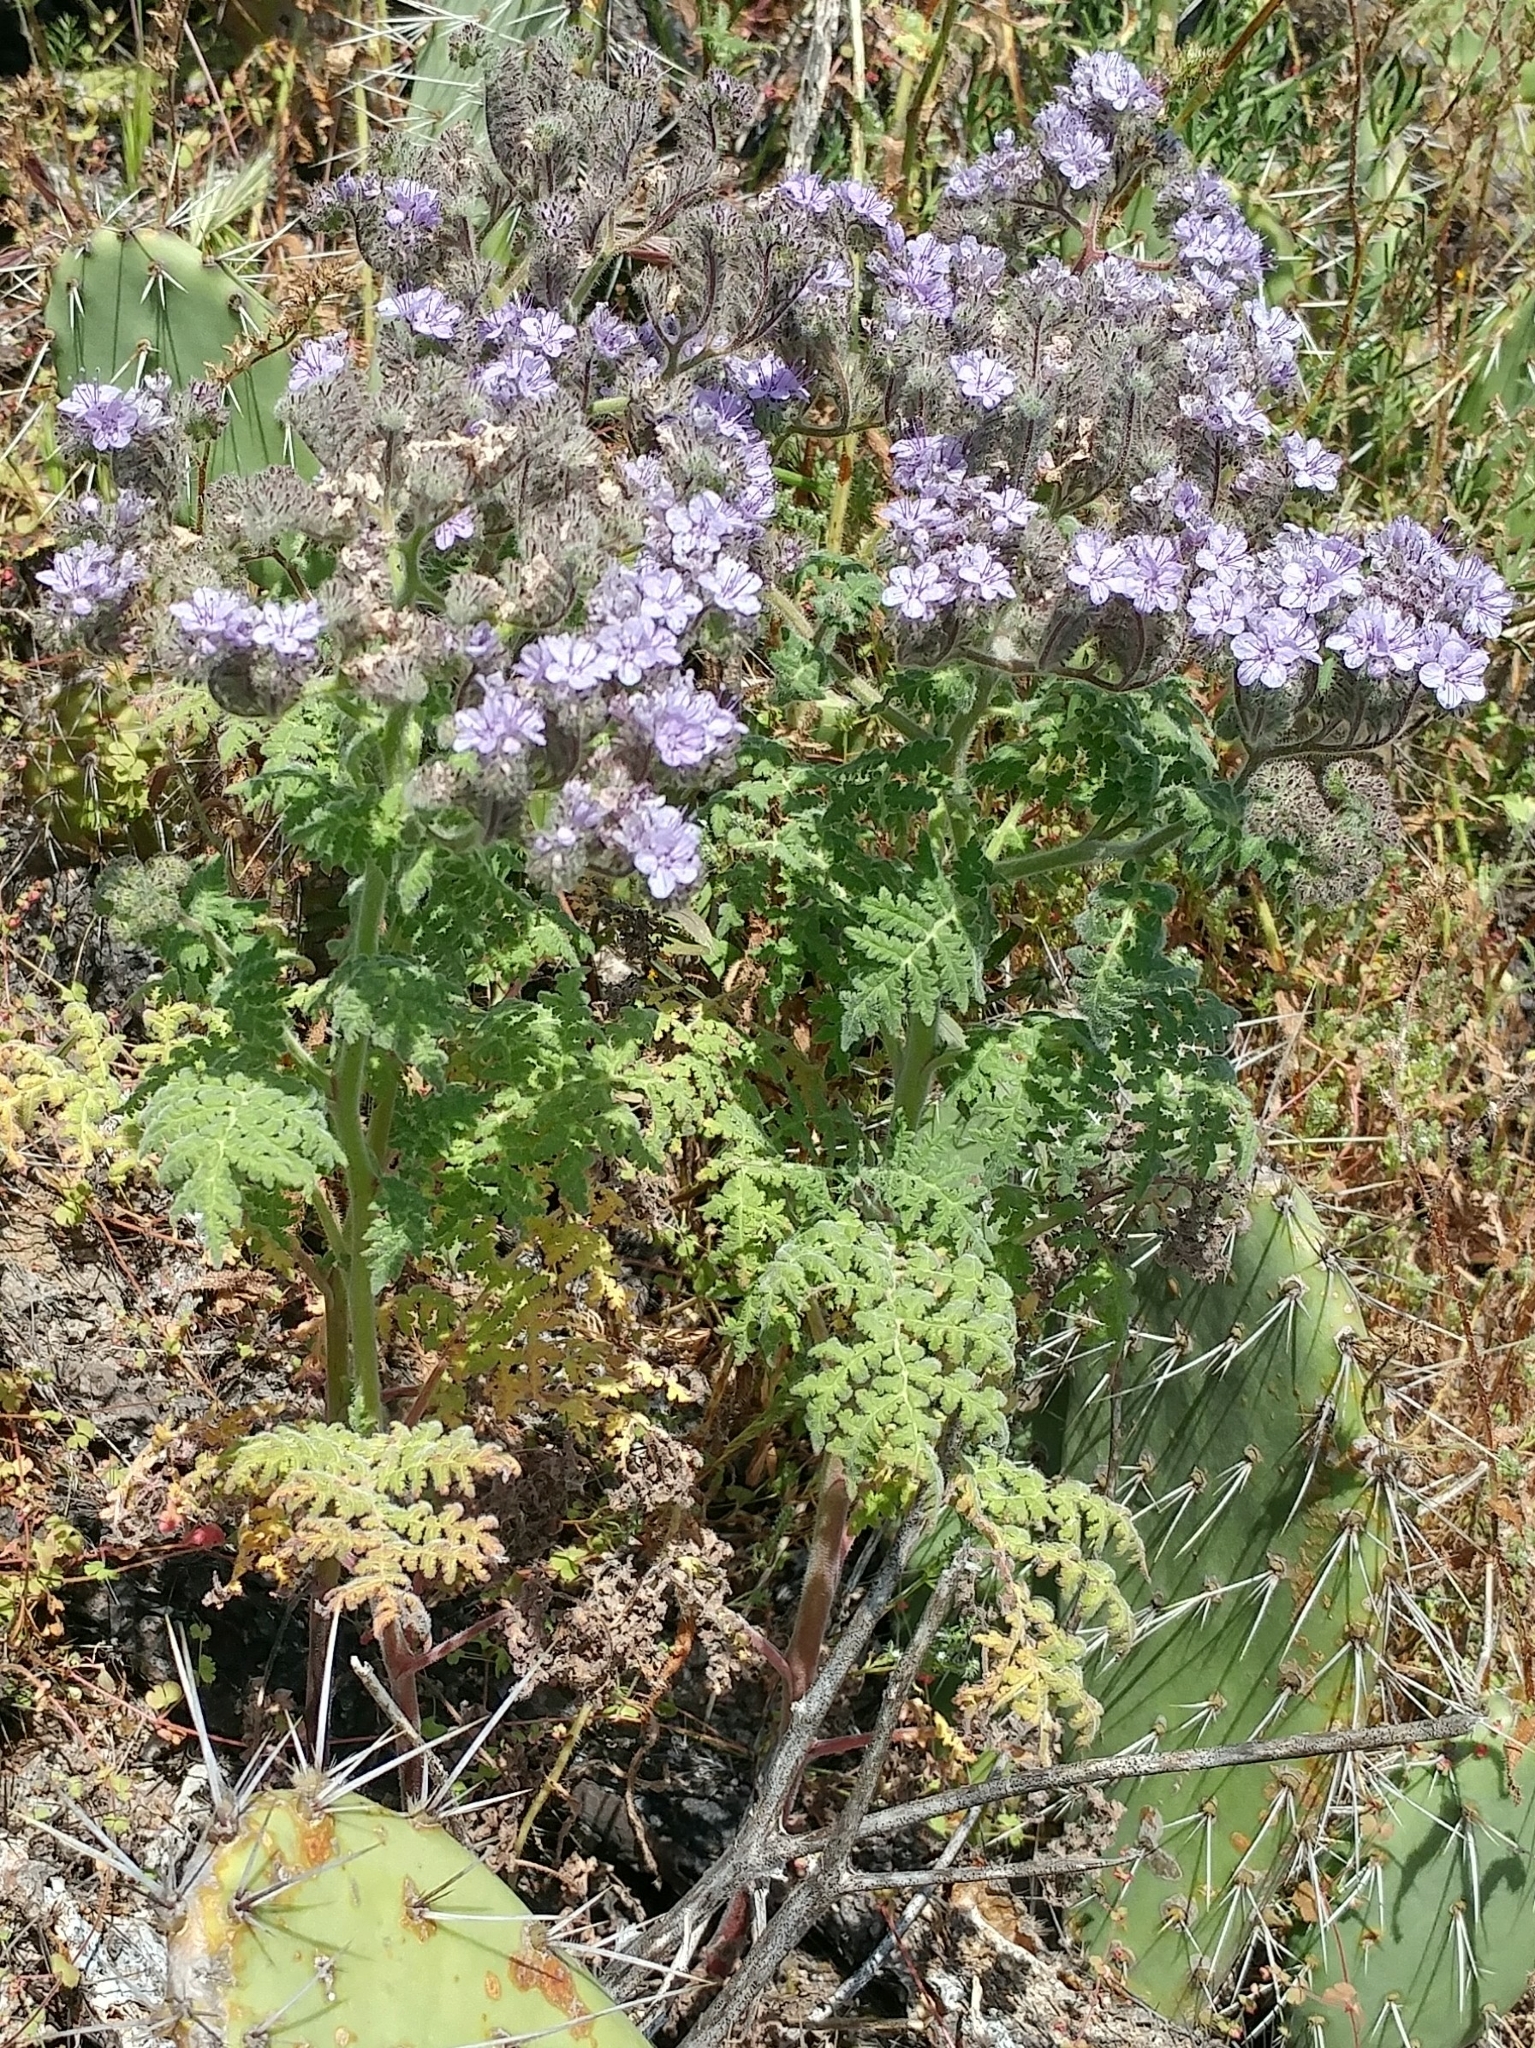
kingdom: Plantae
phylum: Tracheophyta
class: Magnoliopsida
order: Boraginales
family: Hydrophyllaceae
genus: Phacelia
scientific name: Phacelia floribunda
